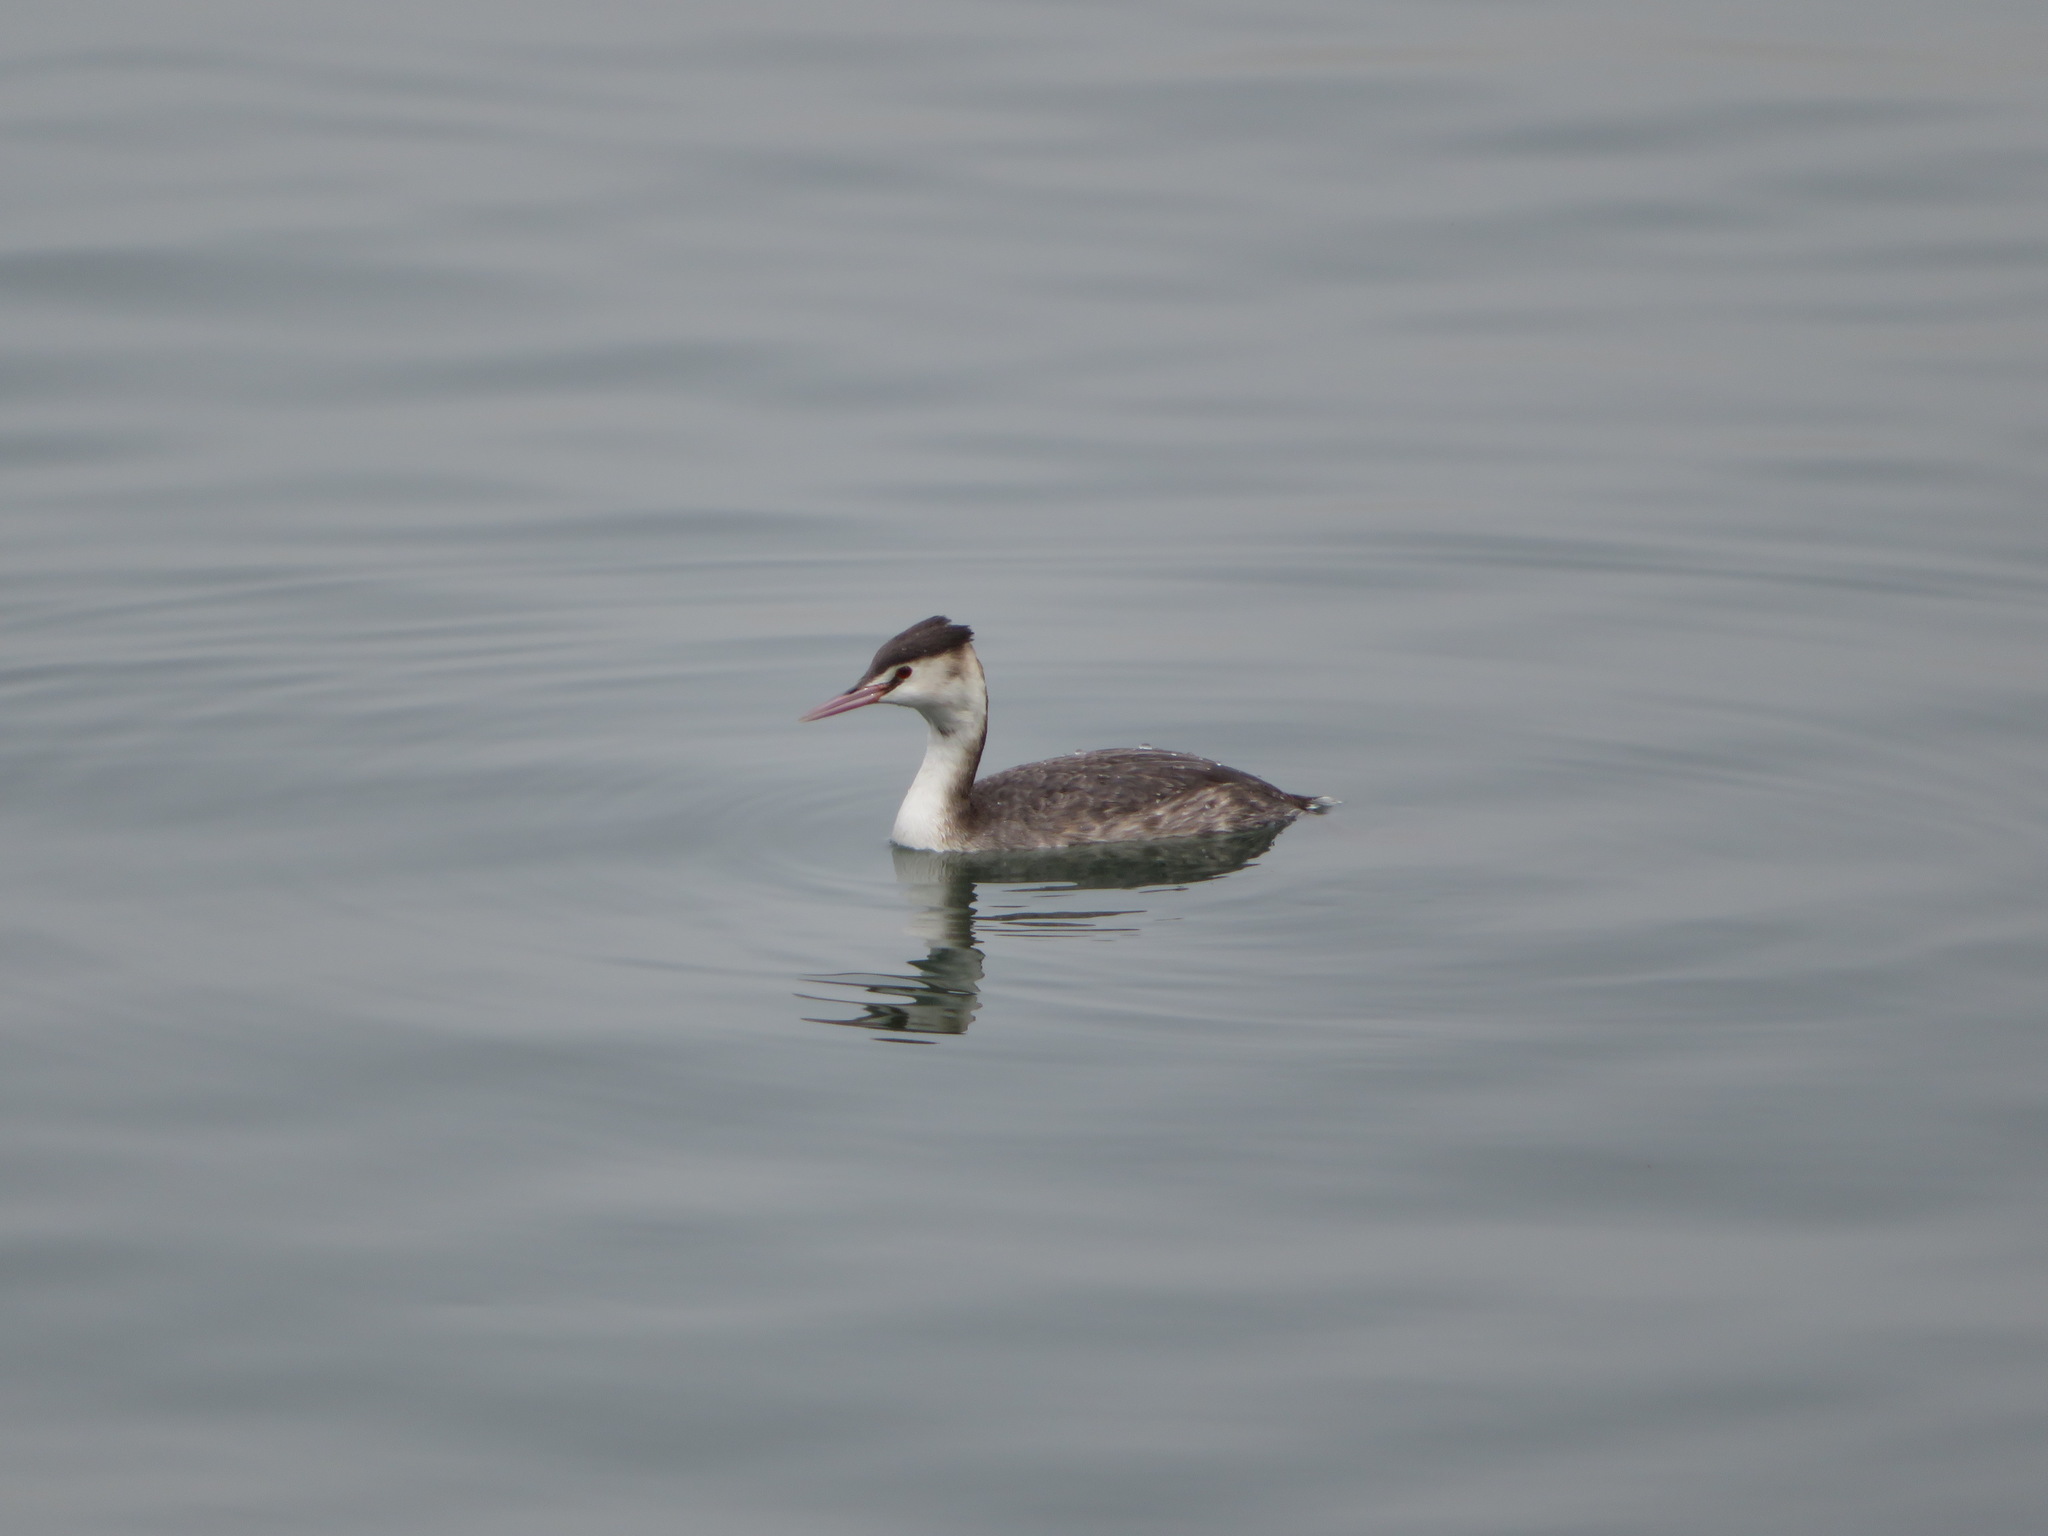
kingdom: Animalia
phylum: Chordata
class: Aves
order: Podicipediformes
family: Podicipedidae
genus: Podiceps
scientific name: Podiceps cristatus
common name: Great crested grebe
